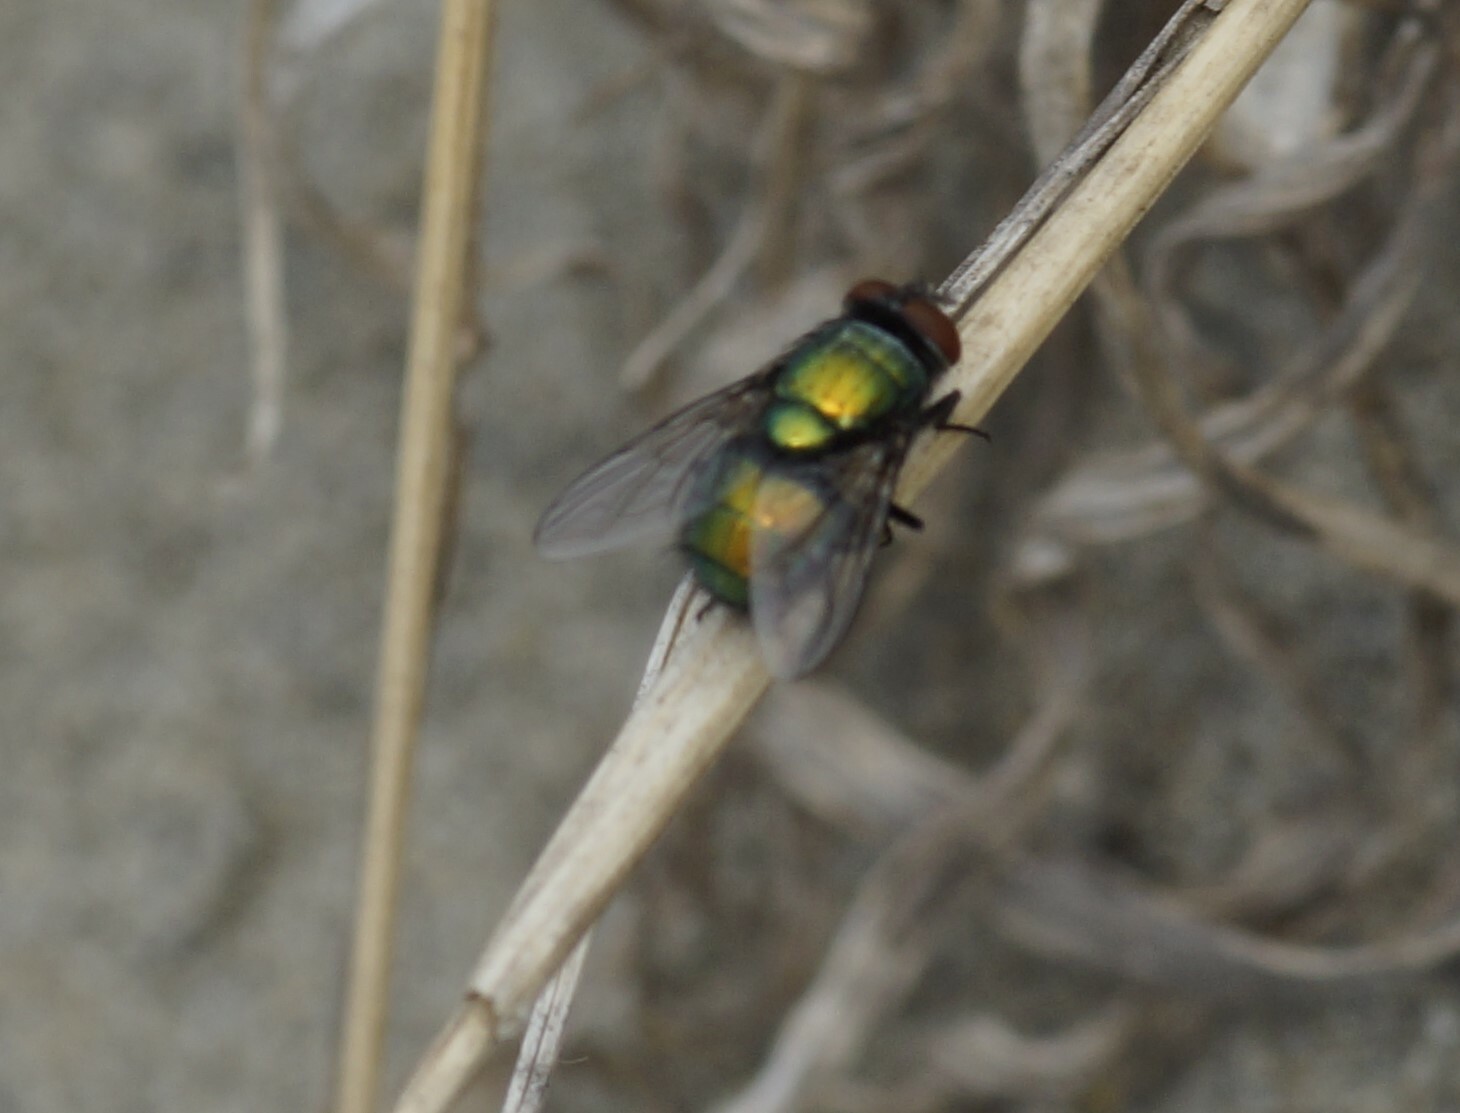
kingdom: Animalia
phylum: Arthropoda
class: Insecta
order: Diptera
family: Calliphoridae
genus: Lucilia
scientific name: Lucilia sericata
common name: Blow fly
